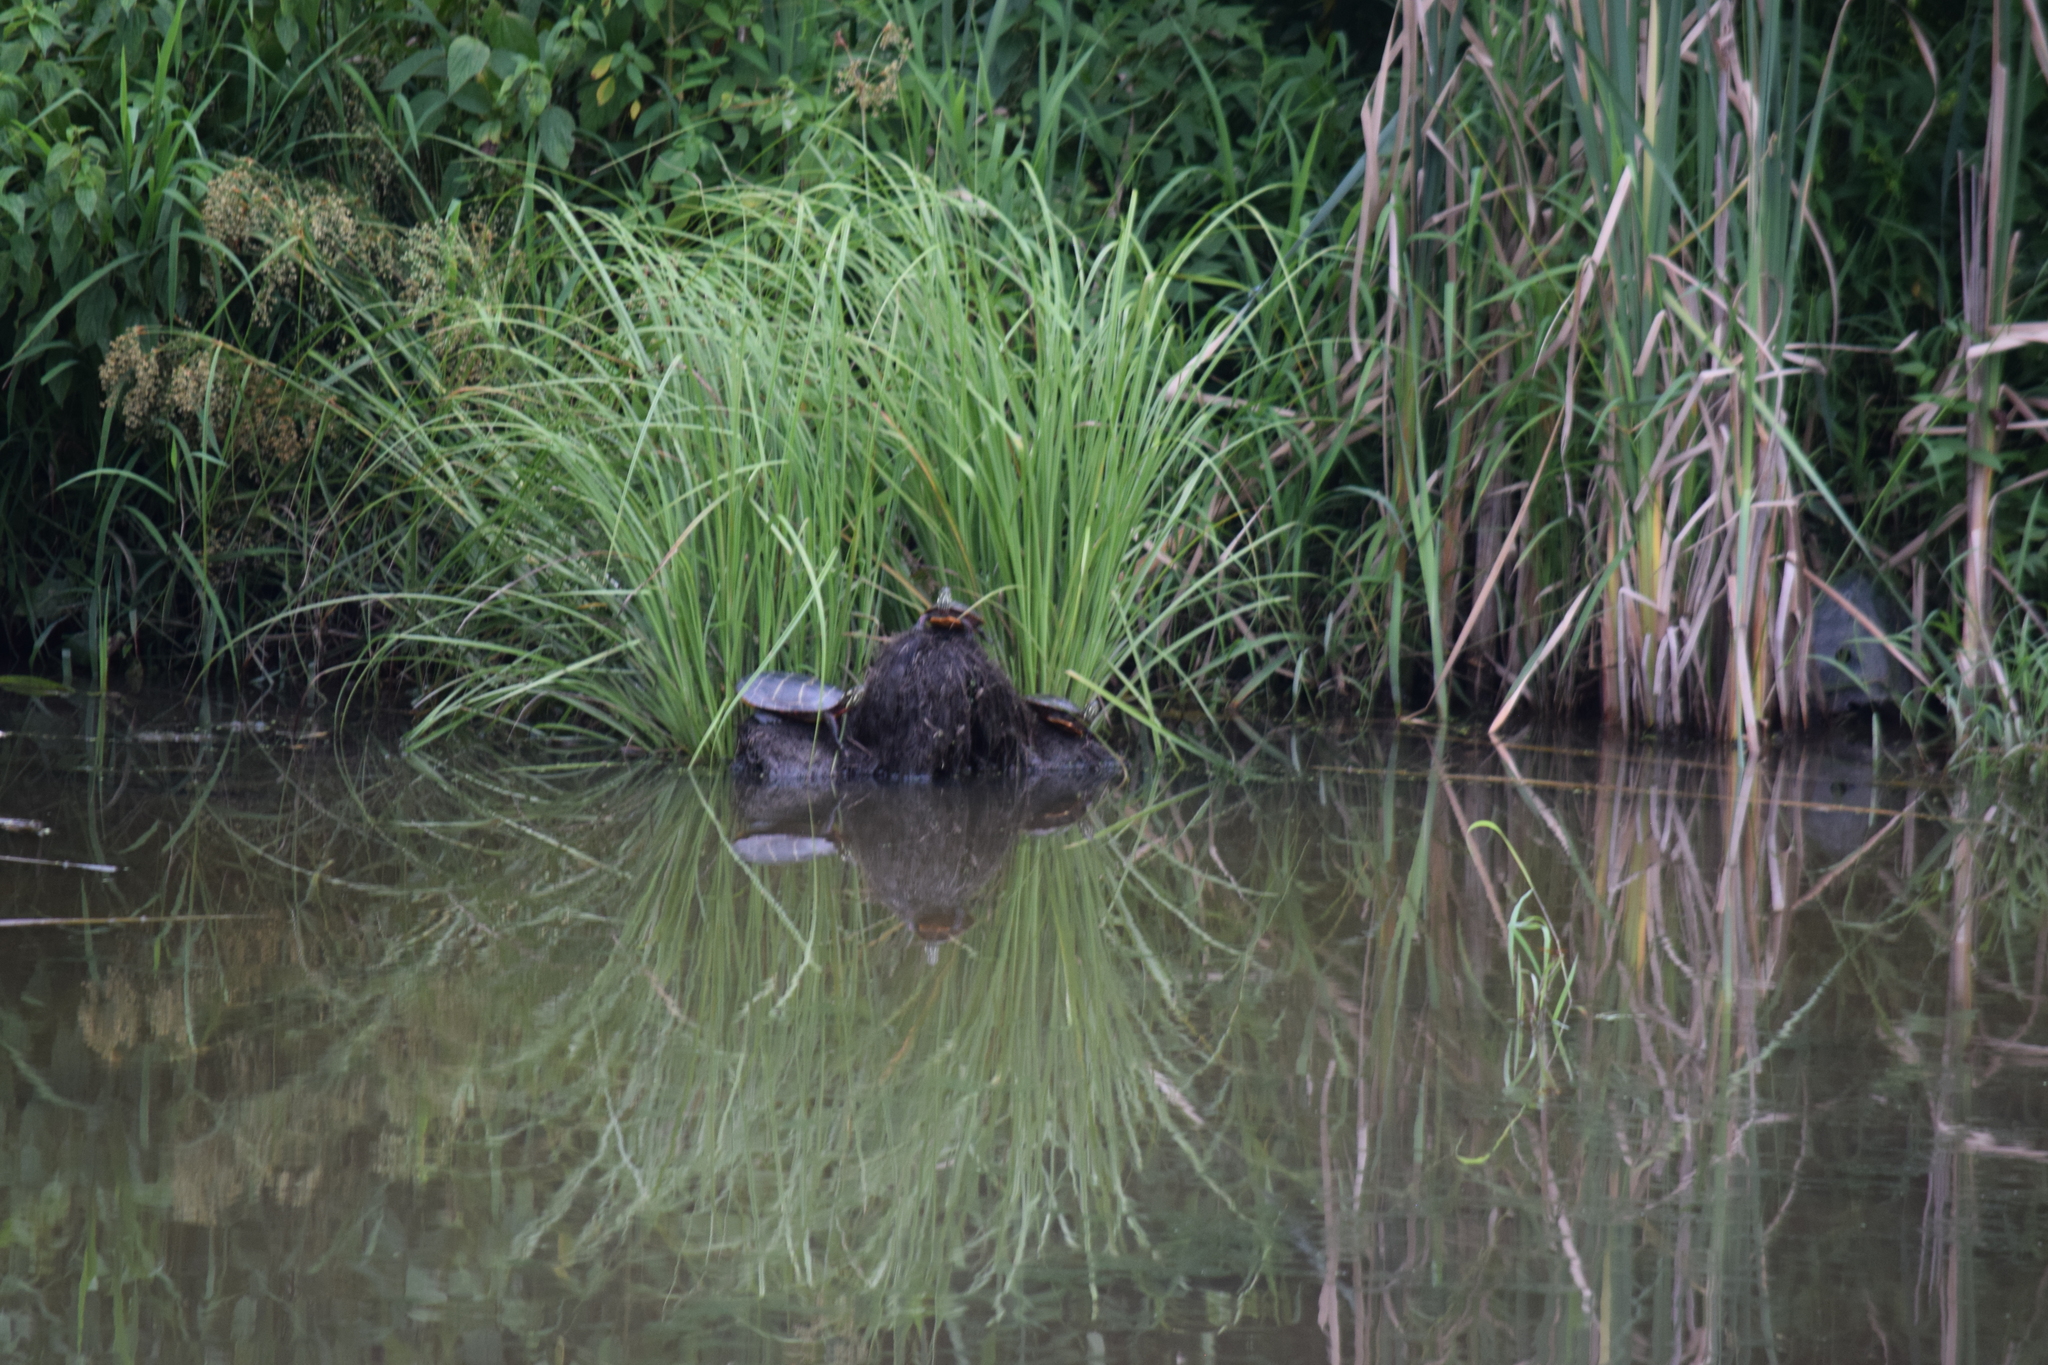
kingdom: Animalia
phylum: Chordata
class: Testudines
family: Emydidae
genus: Chrysemys
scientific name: Chrysemys picta
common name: Painted turtle
